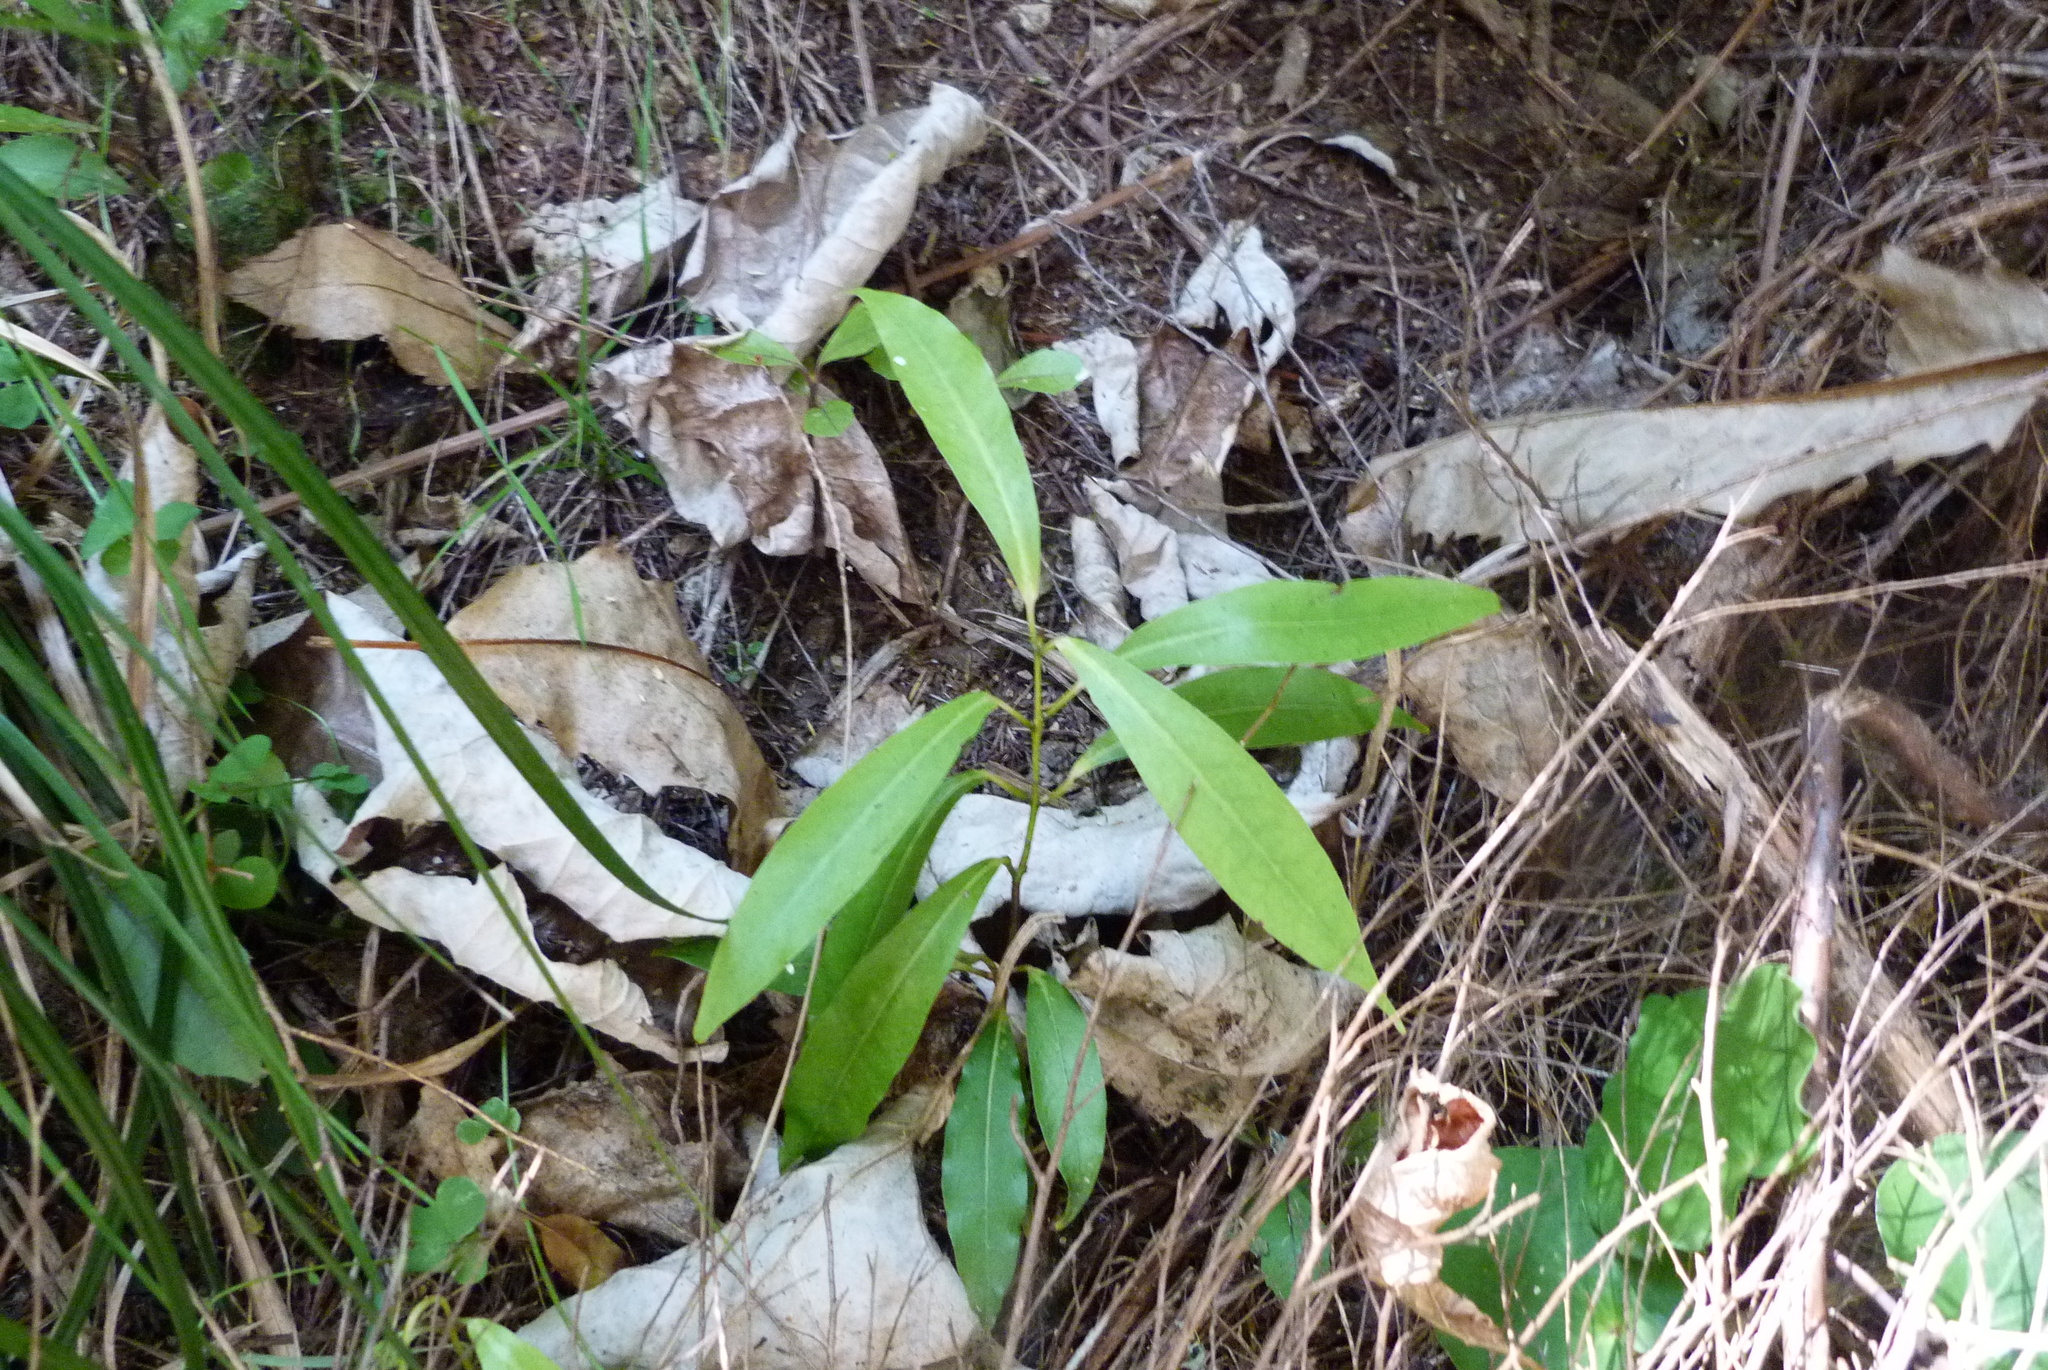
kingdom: Plantae
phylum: Tracheophyta
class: Magnoliopsida
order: Laurales
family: Lauraceae
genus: Beilschmiedia
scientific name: Beilschmiedia tawa
